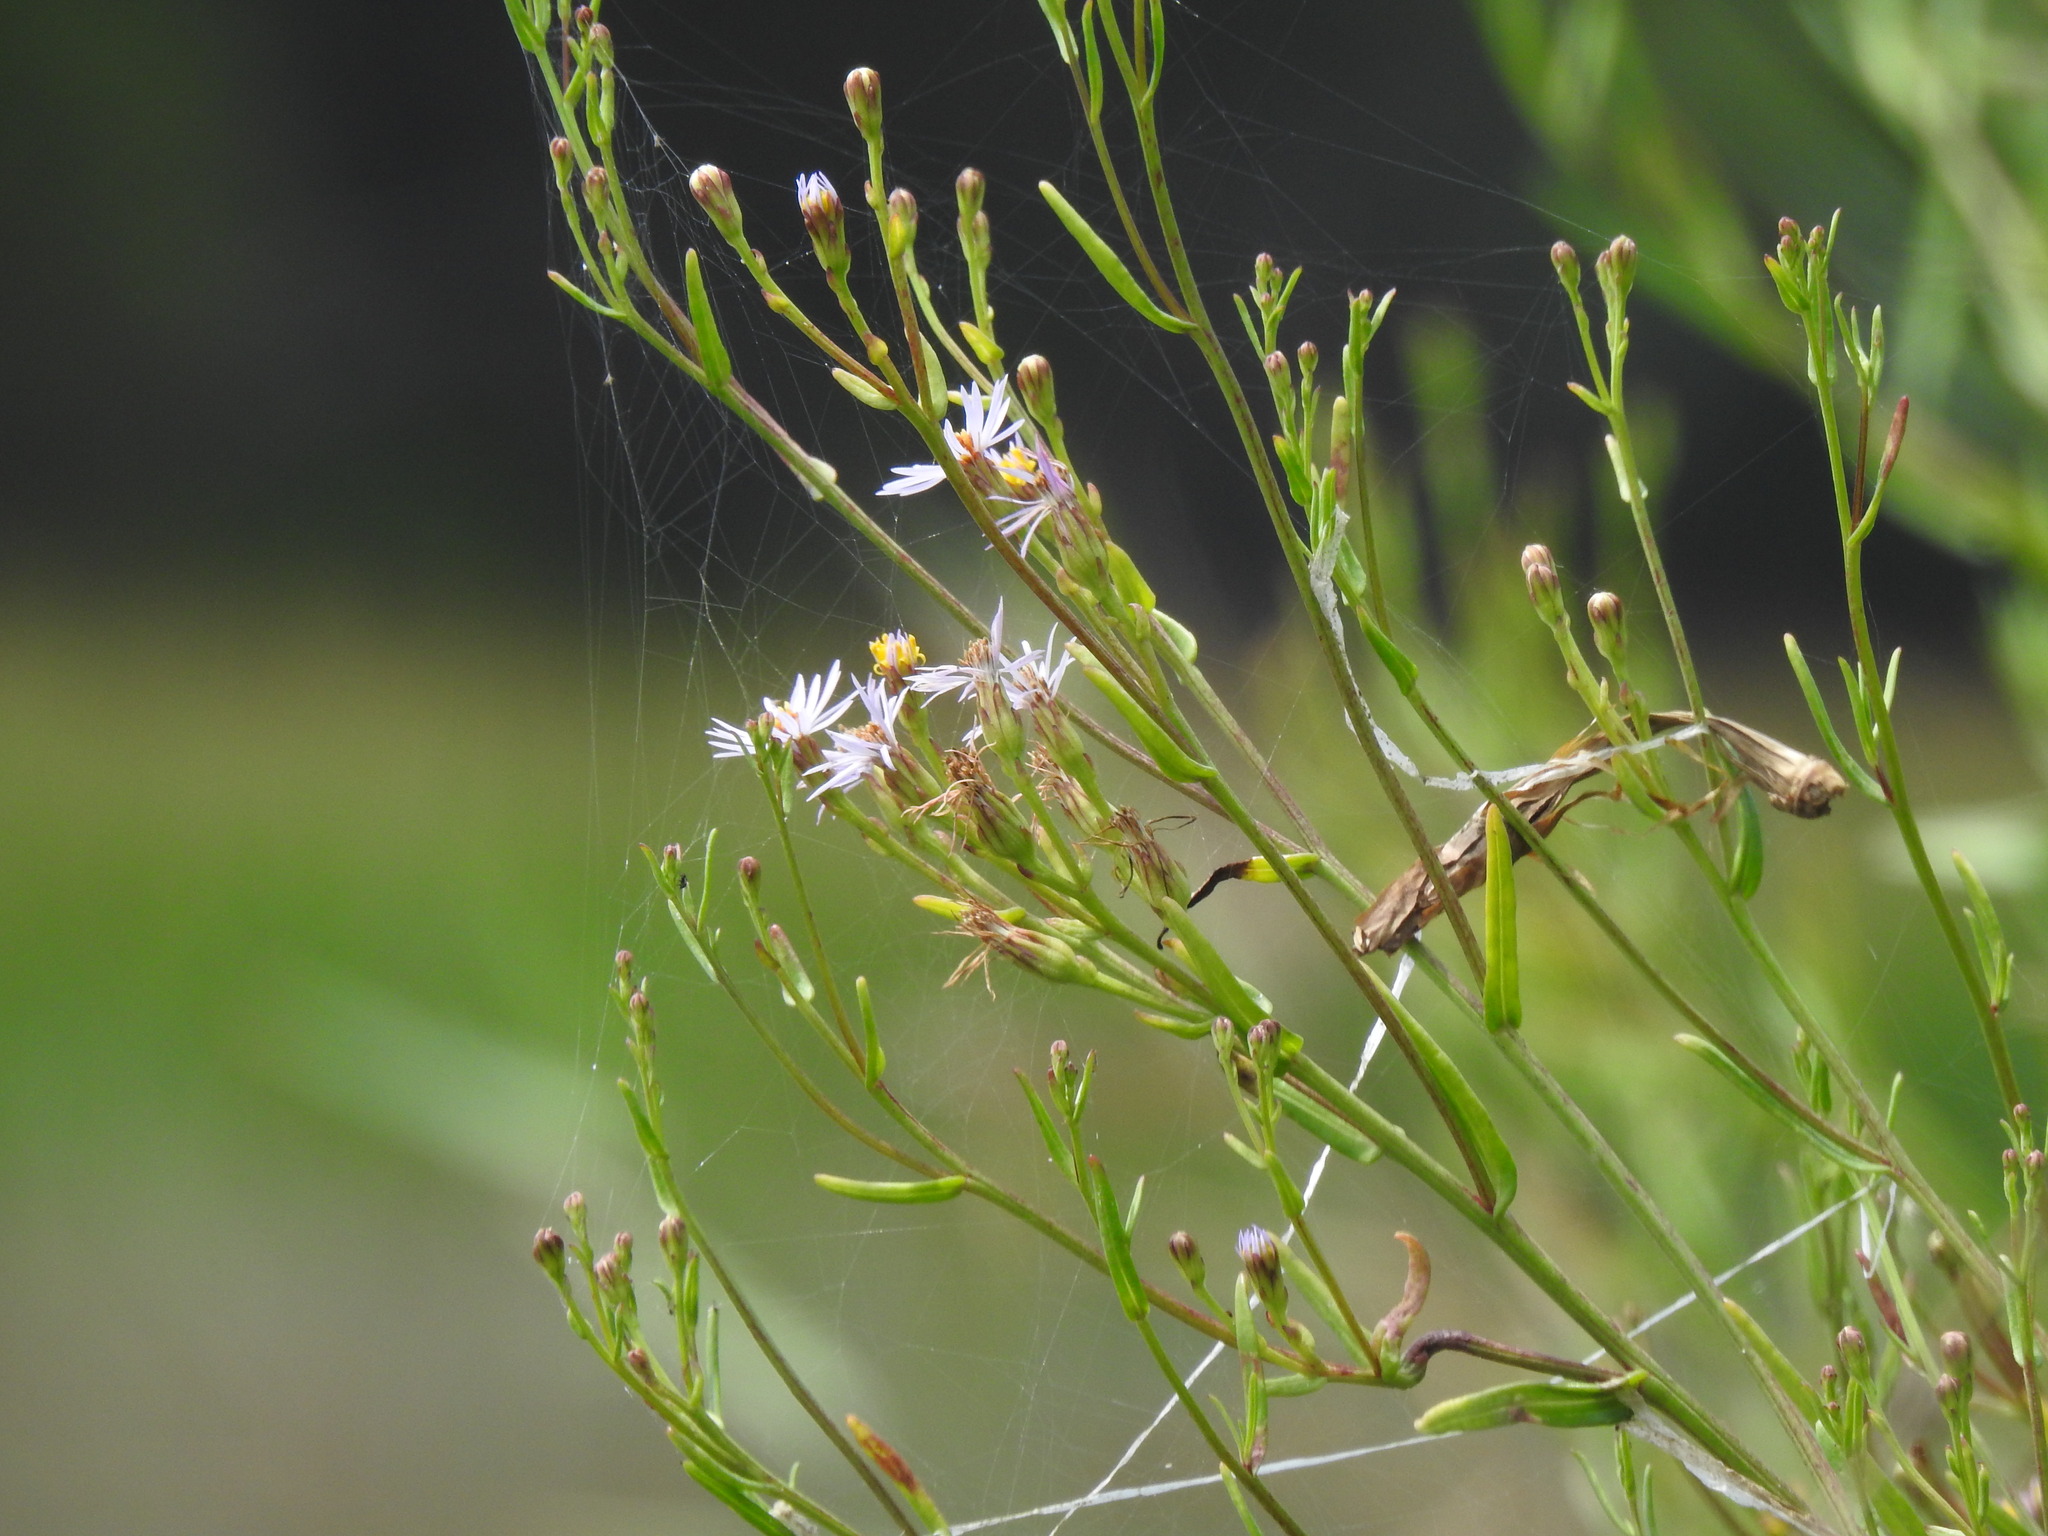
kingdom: Plantae
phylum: Tracheophyta
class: Magnoliopsida
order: Asterales
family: Asteraceae
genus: Tripolium
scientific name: Tripolium pannonicum
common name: Sea aster
